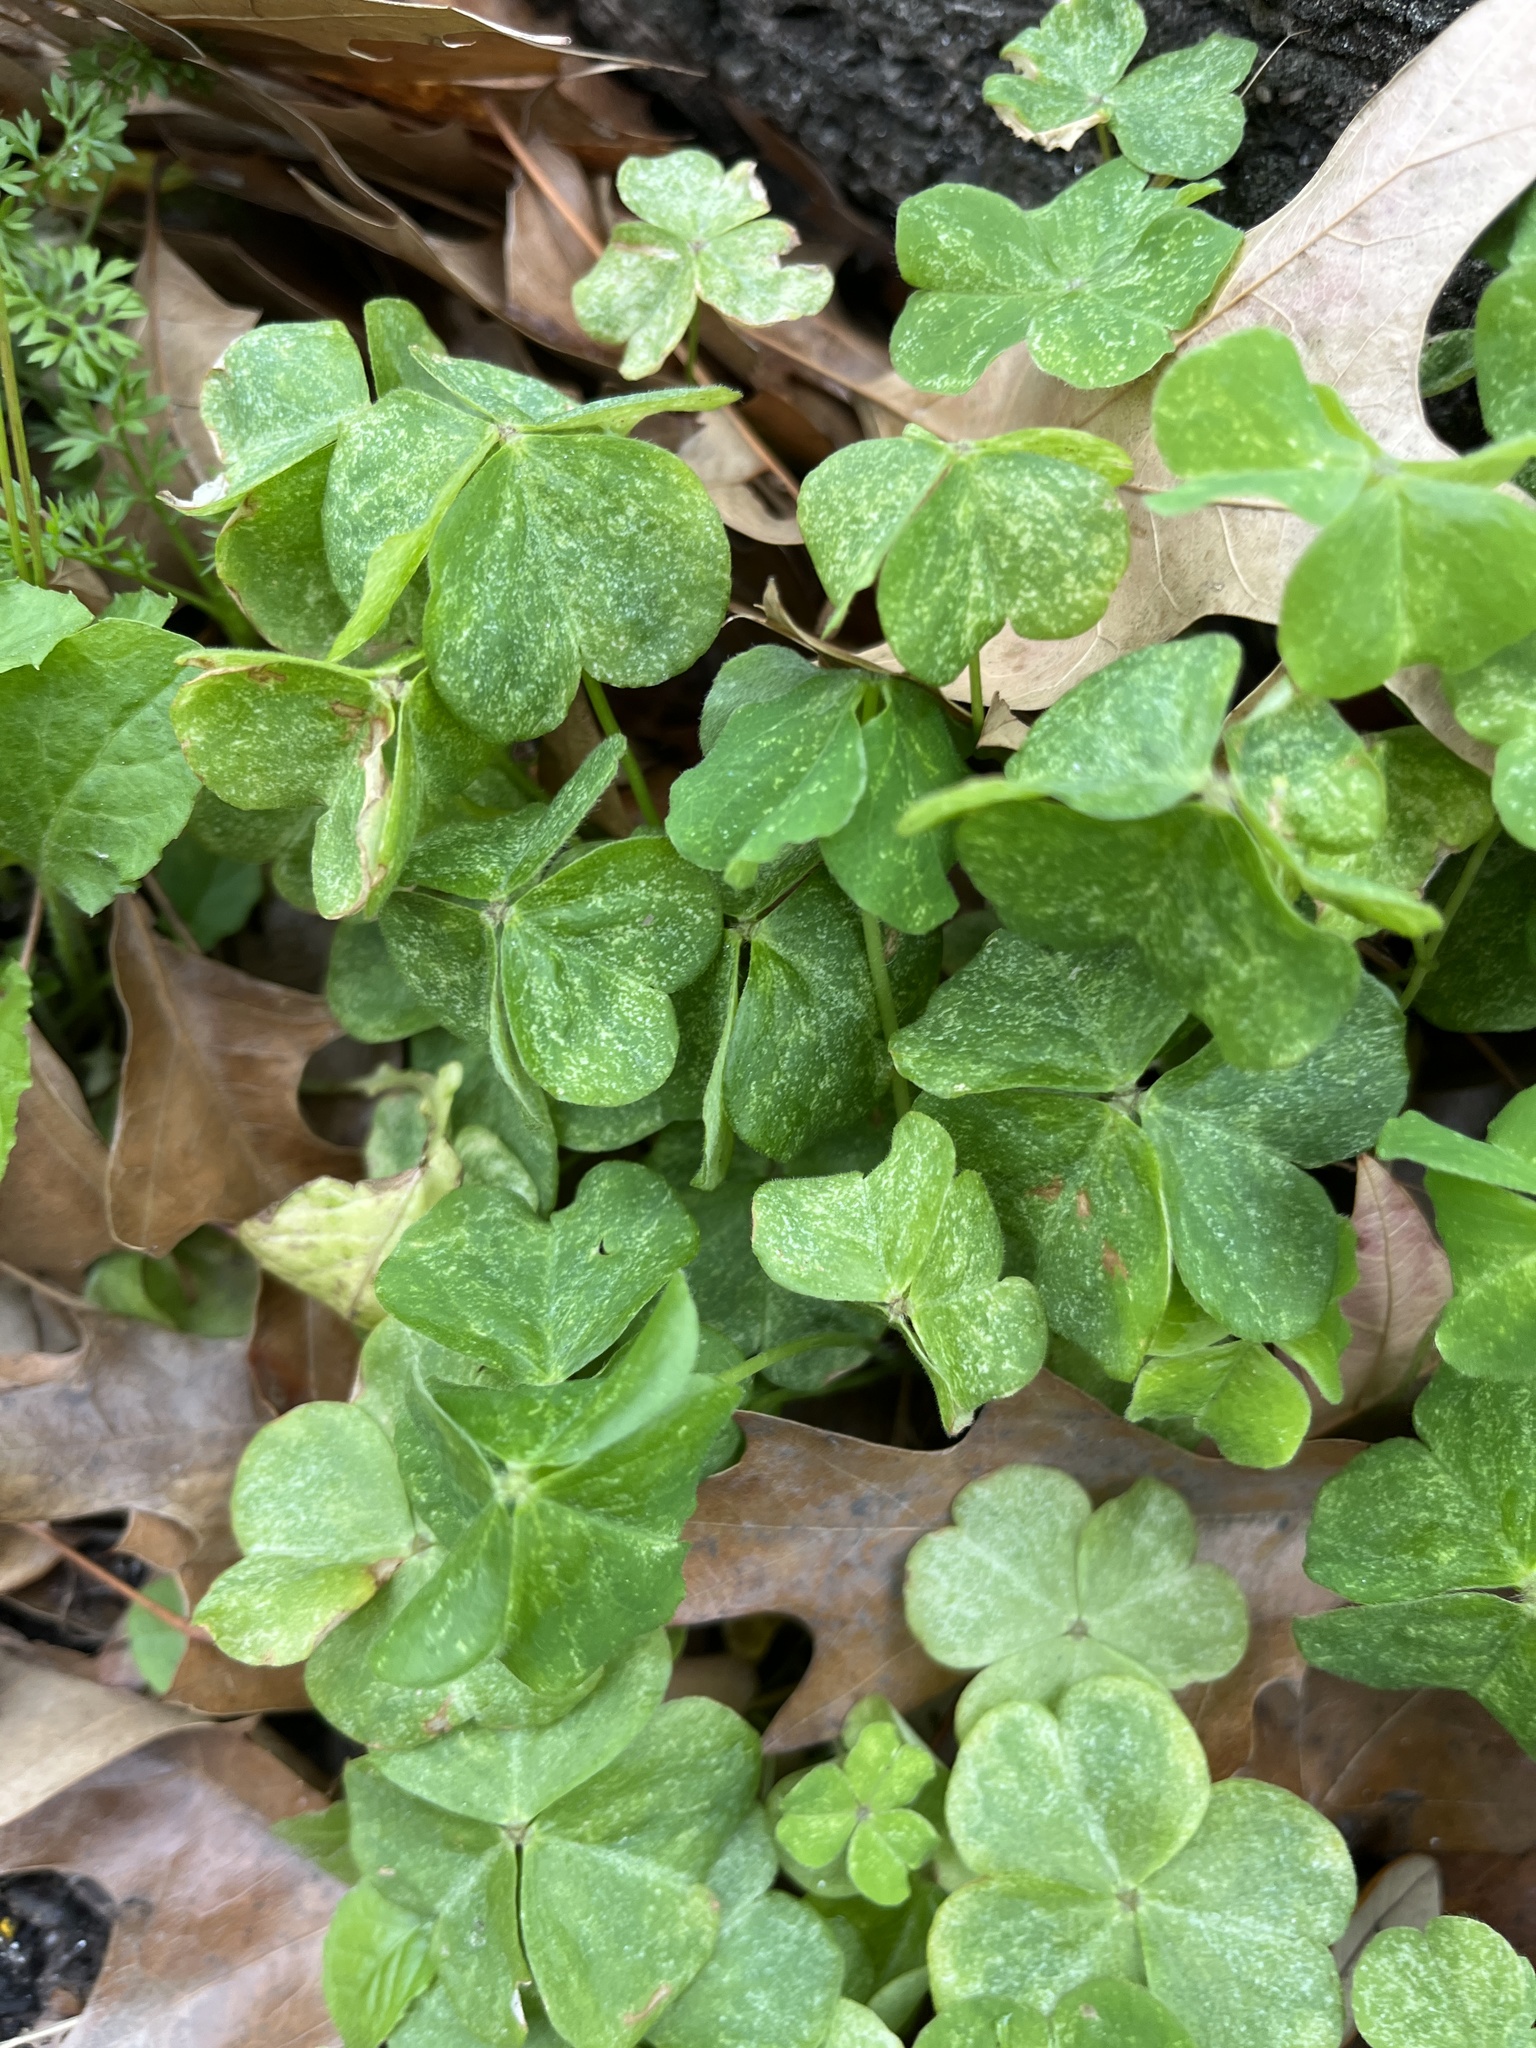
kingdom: Plantae
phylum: Tracheophyta
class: Magnoliopsida
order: Oxalidales
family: Oxalidaceae
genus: Oxalis
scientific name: Oxalis debilis
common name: Large-flowered pink-sorrel
